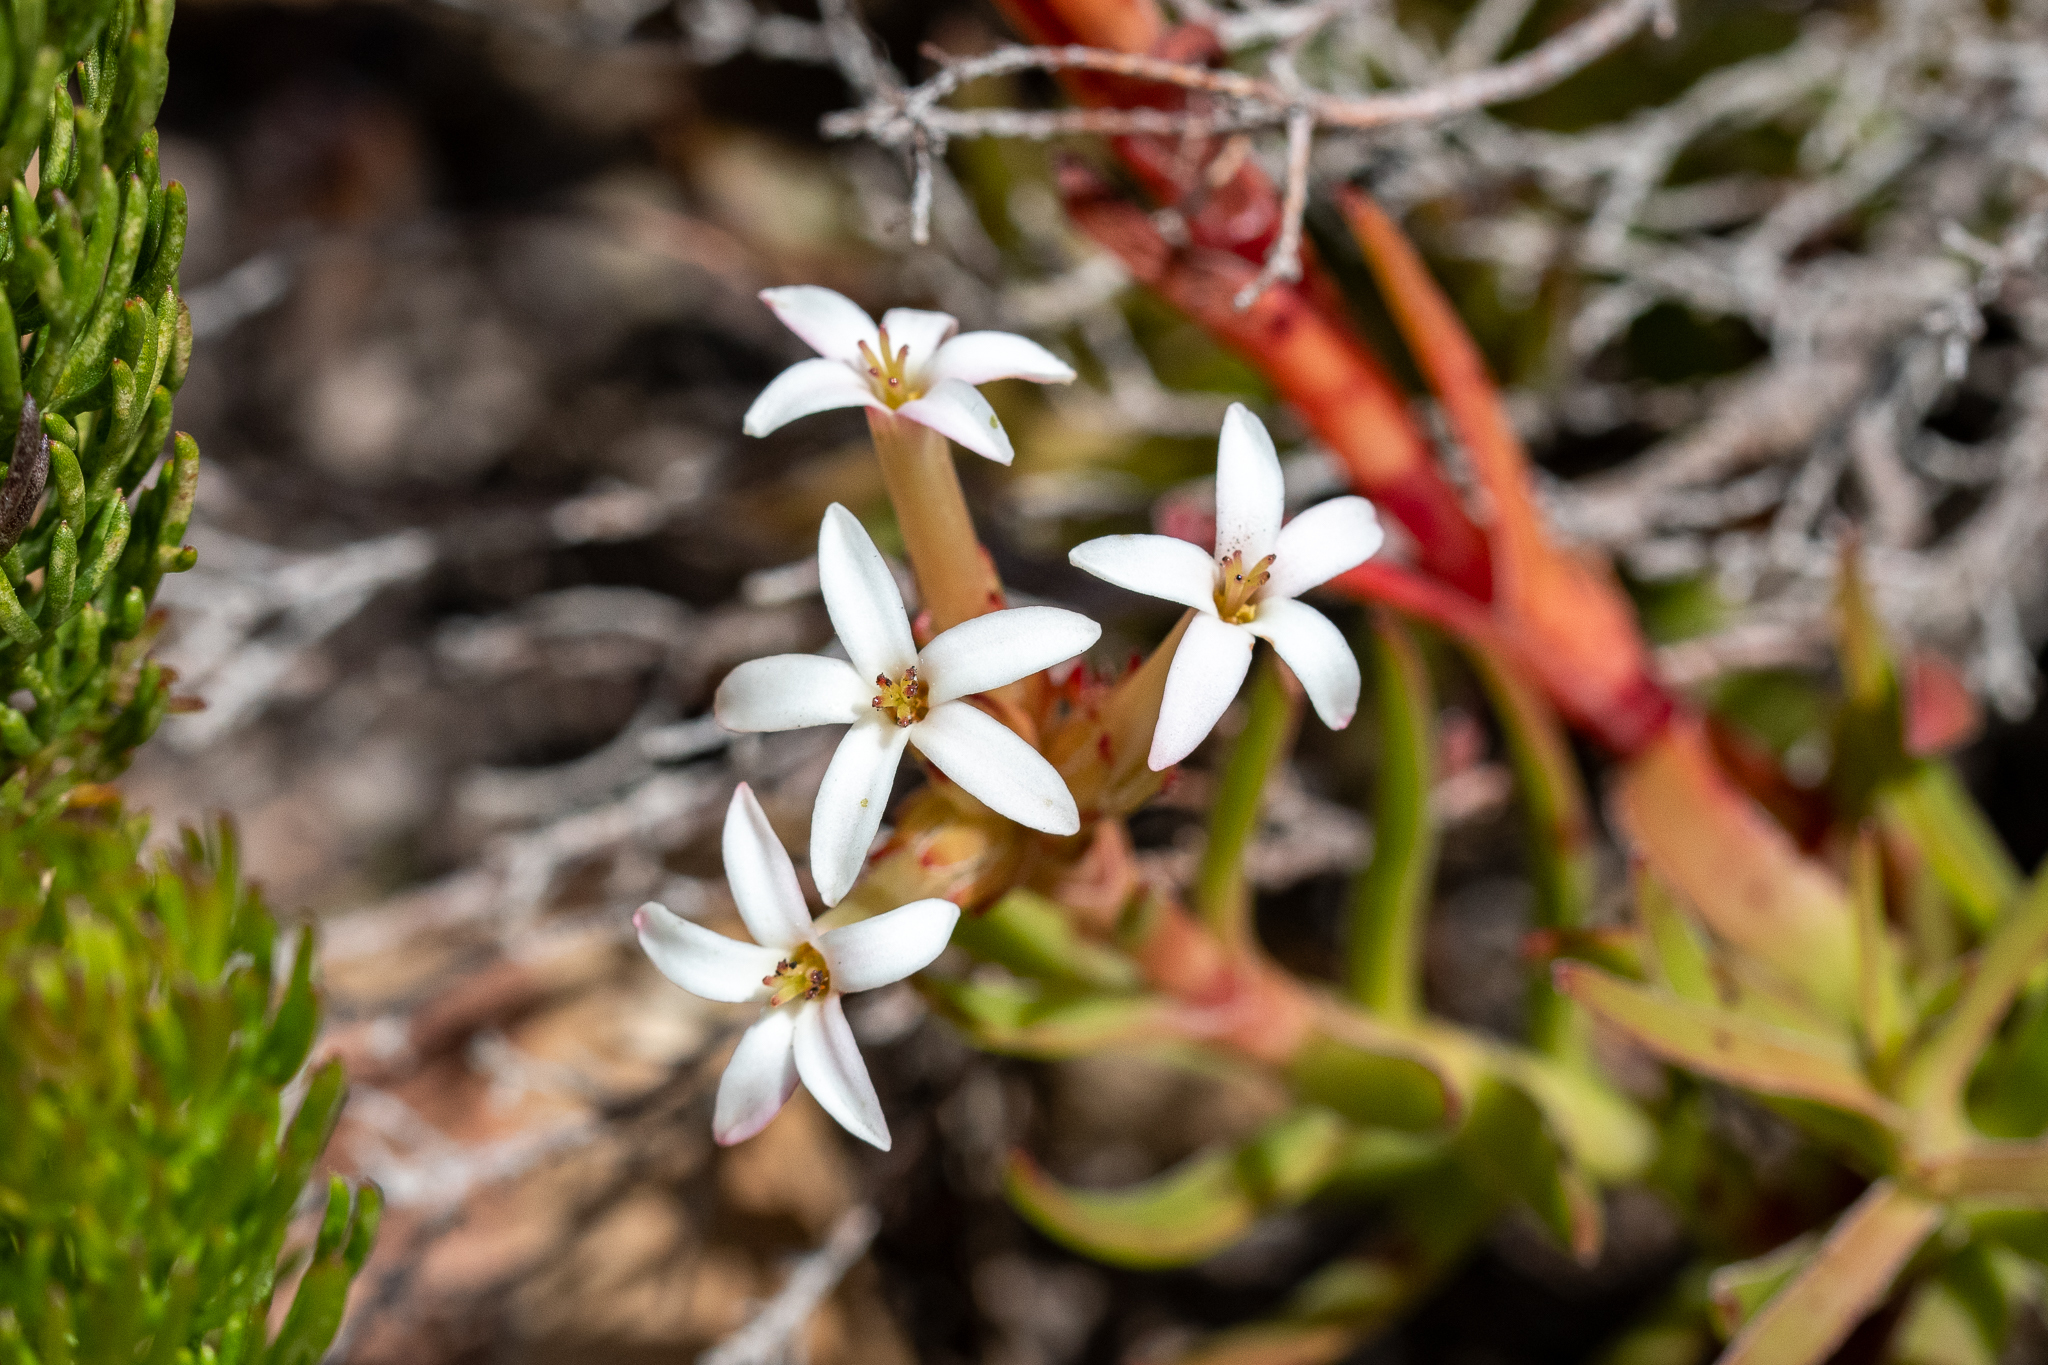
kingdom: Plantae
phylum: Tracheophyta
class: Magnoliopsida
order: Saxifragales
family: Crassulaceae
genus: Crassula
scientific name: Crassula fascicularis
